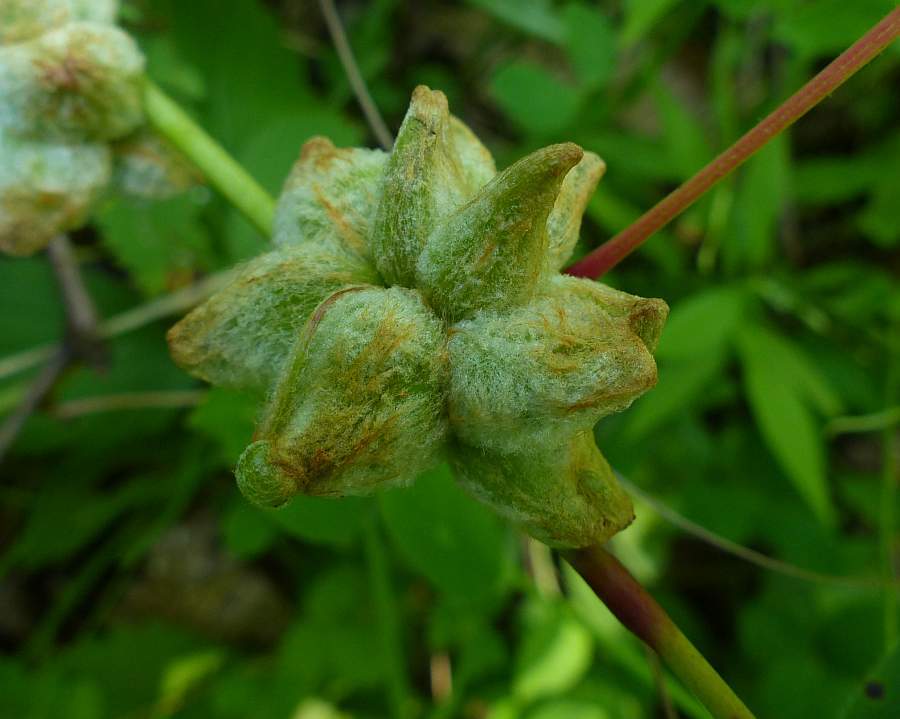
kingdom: Animalia
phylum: Arthropoda
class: Insecta
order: Diptera
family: Cecidomyiidae
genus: Ampelomyia
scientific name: Ampelomyia vitiscoryloides
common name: Grape filbert gall
